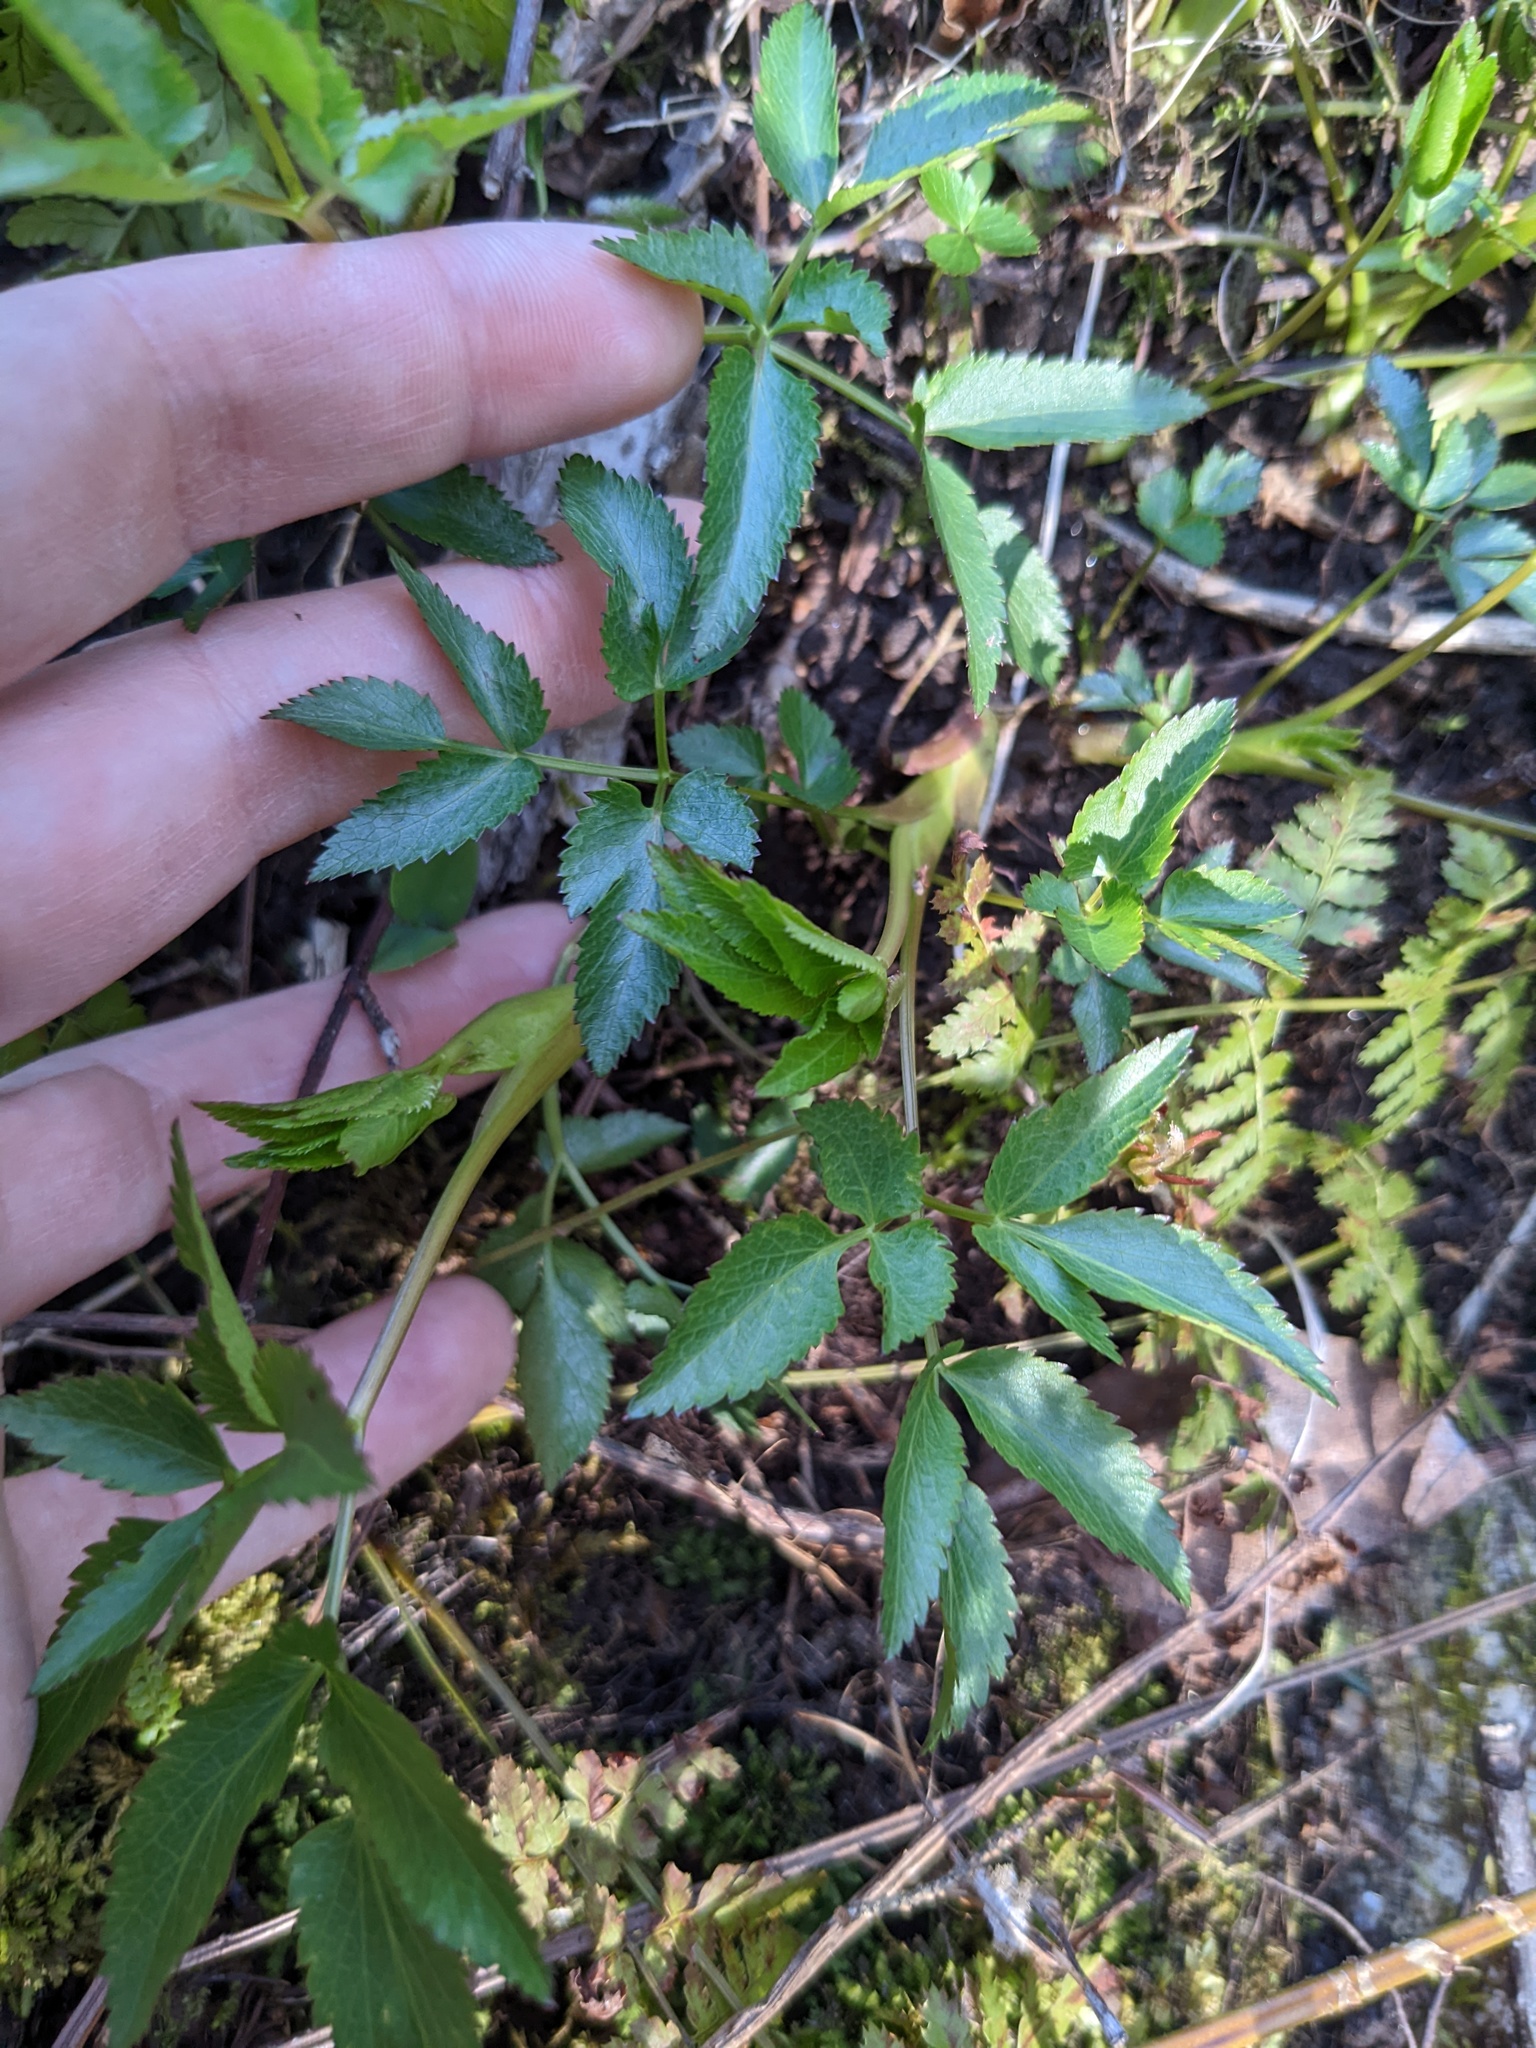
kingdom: Plantae
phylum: Tracheophyta
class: Magnoliopsida
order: Apiales
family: Apiaceae
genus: Zizia
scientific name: Zizia aurea
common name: Golden alexanders
